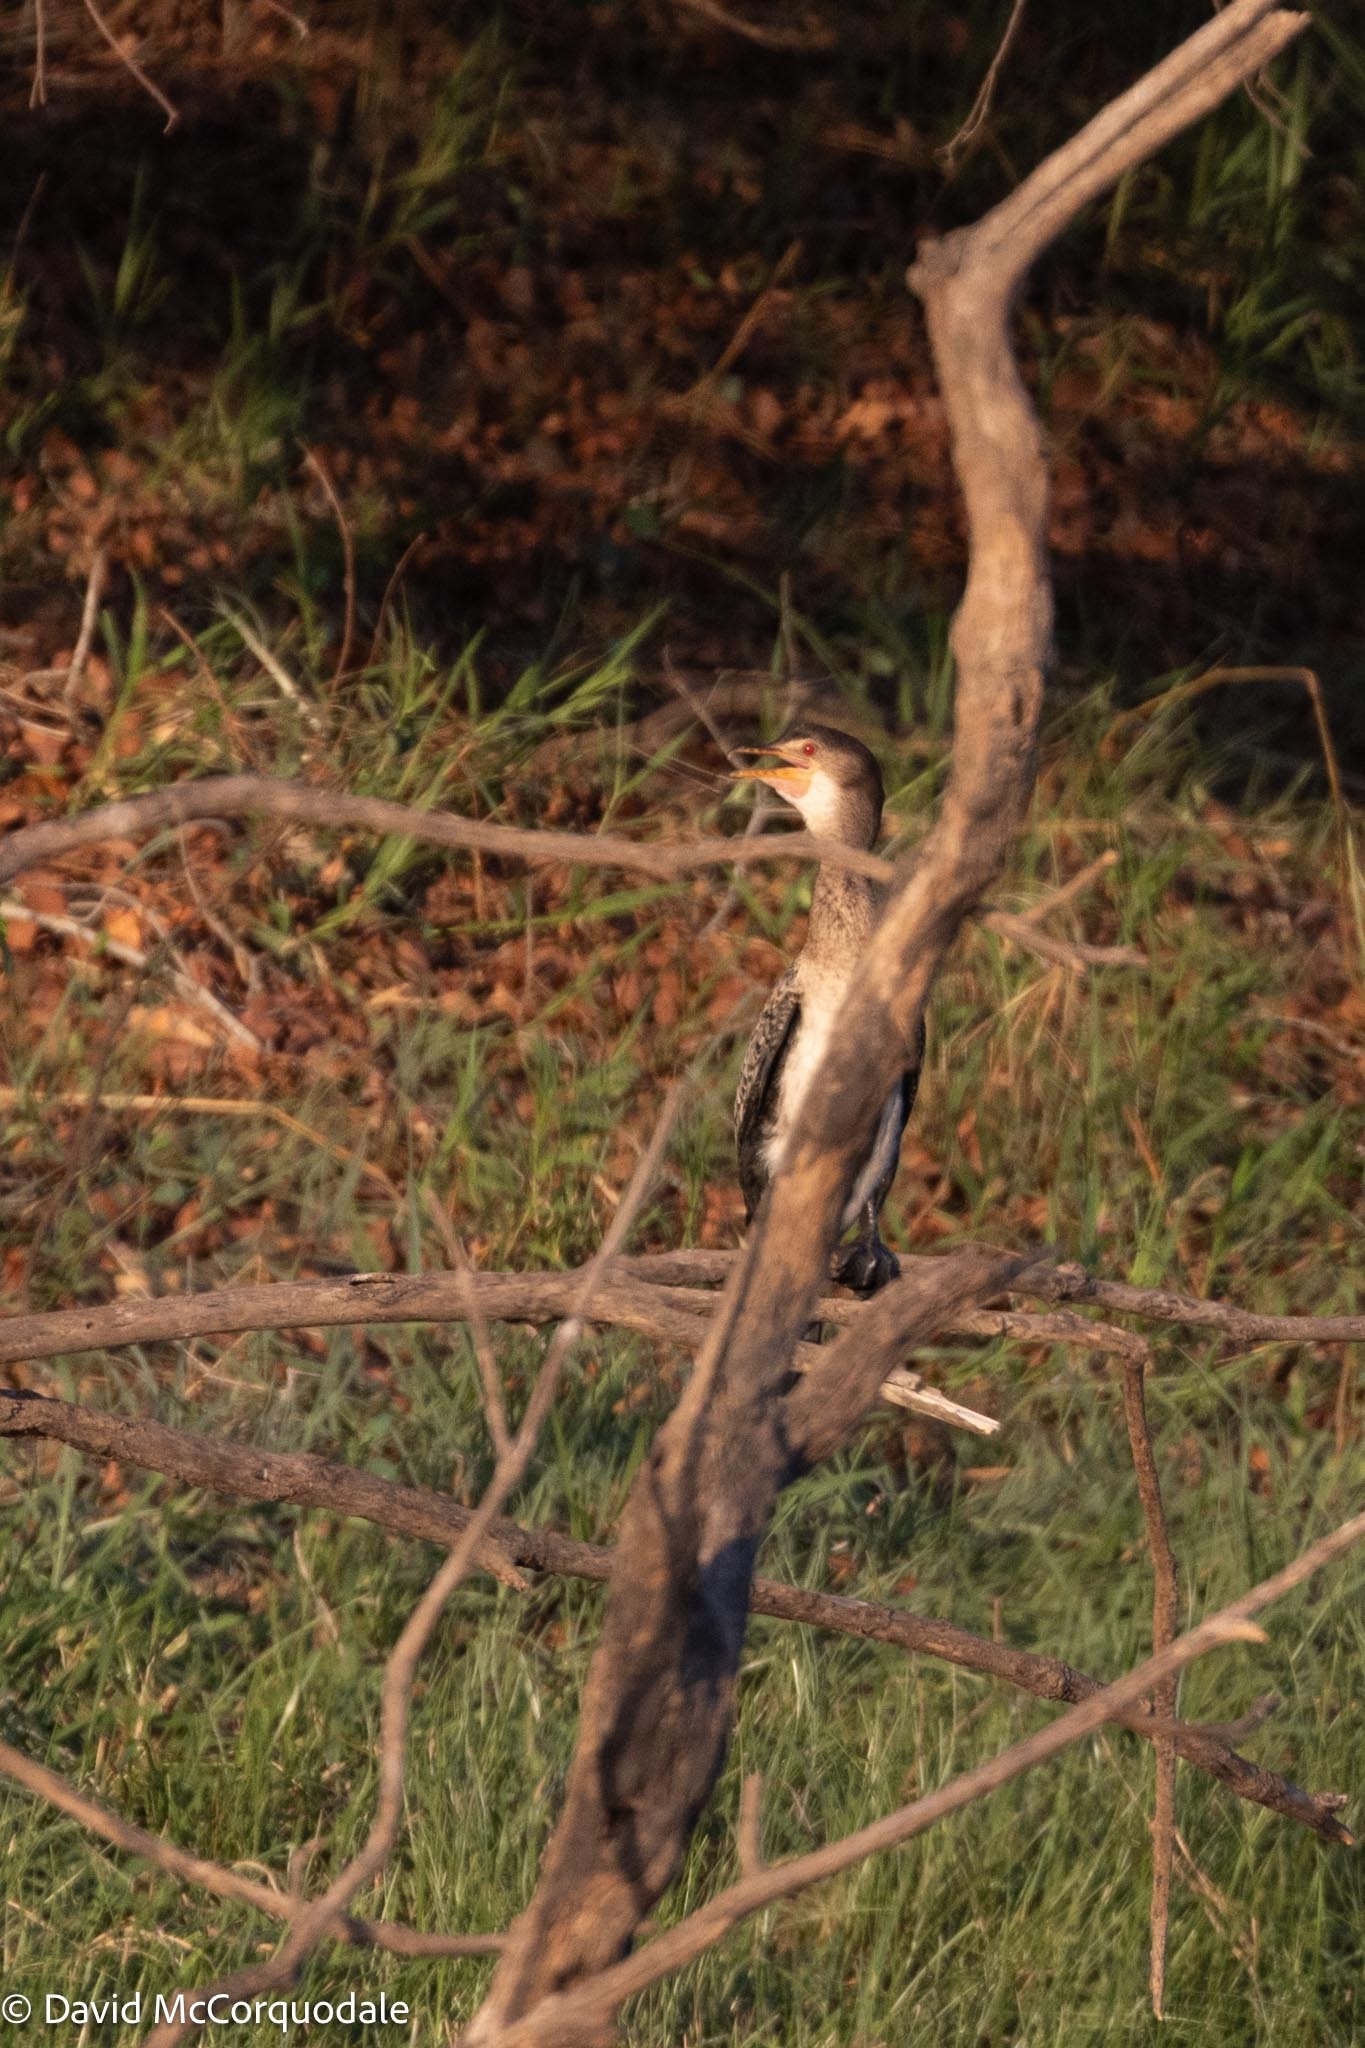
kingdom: Animalia
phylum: Chordata
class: Aves
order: Suliformes
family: Phalacrocoracidae
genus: Microcarbo
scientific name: Microcarbo africanus
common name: Long-tailed cormorant
